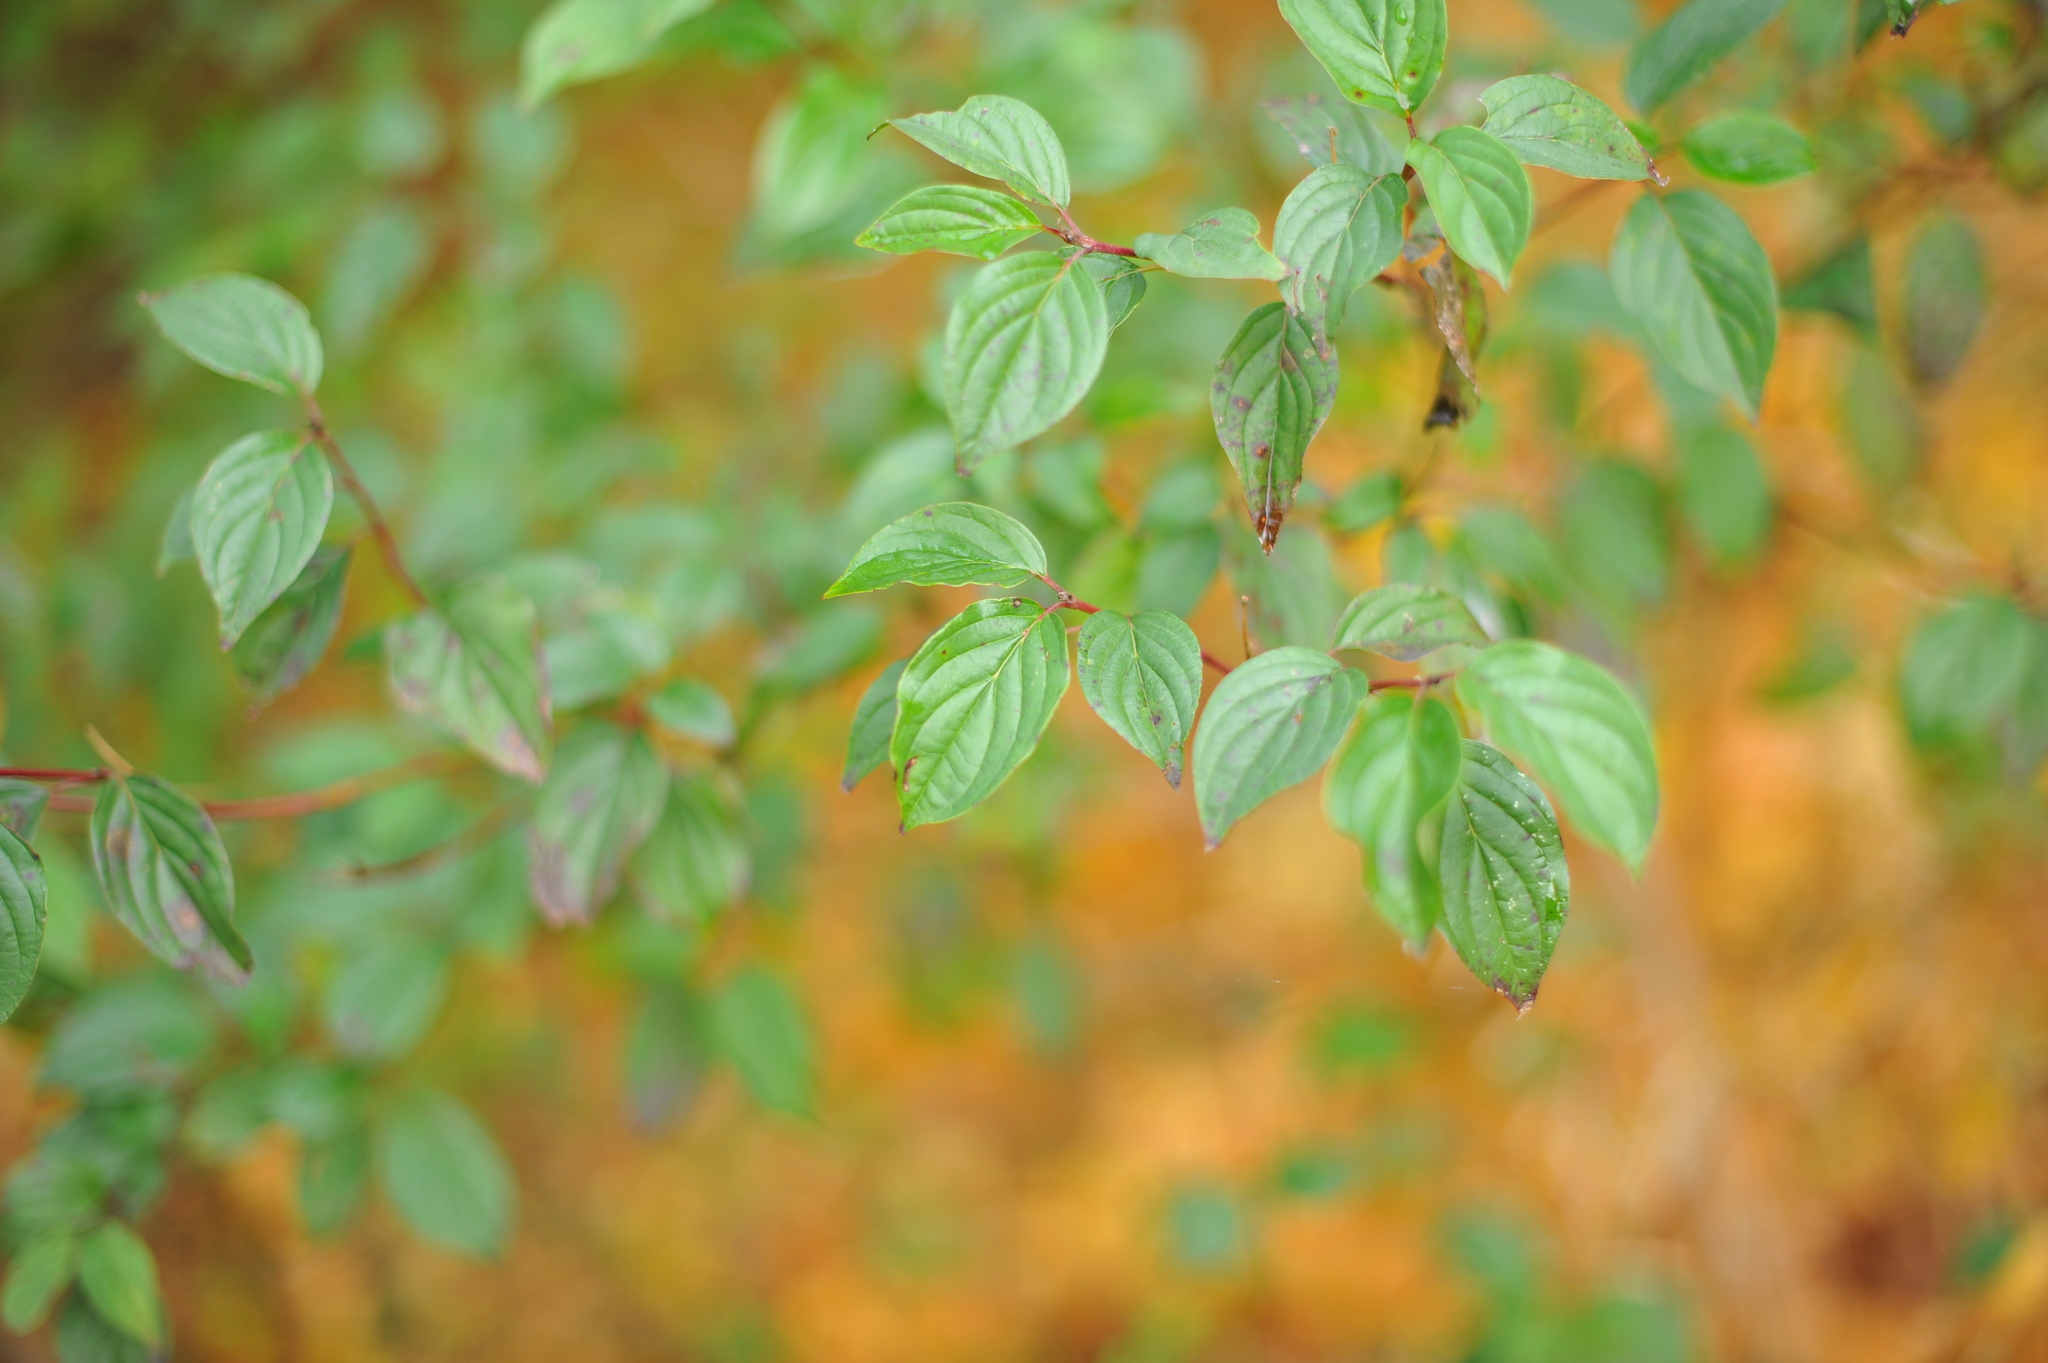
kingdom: Plantae
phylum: Tracheophyta
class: Magnoliopsida
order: Cornales
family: Cornaceae
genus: Cornus
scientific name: Cornus sanguinea
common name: Dogwood
